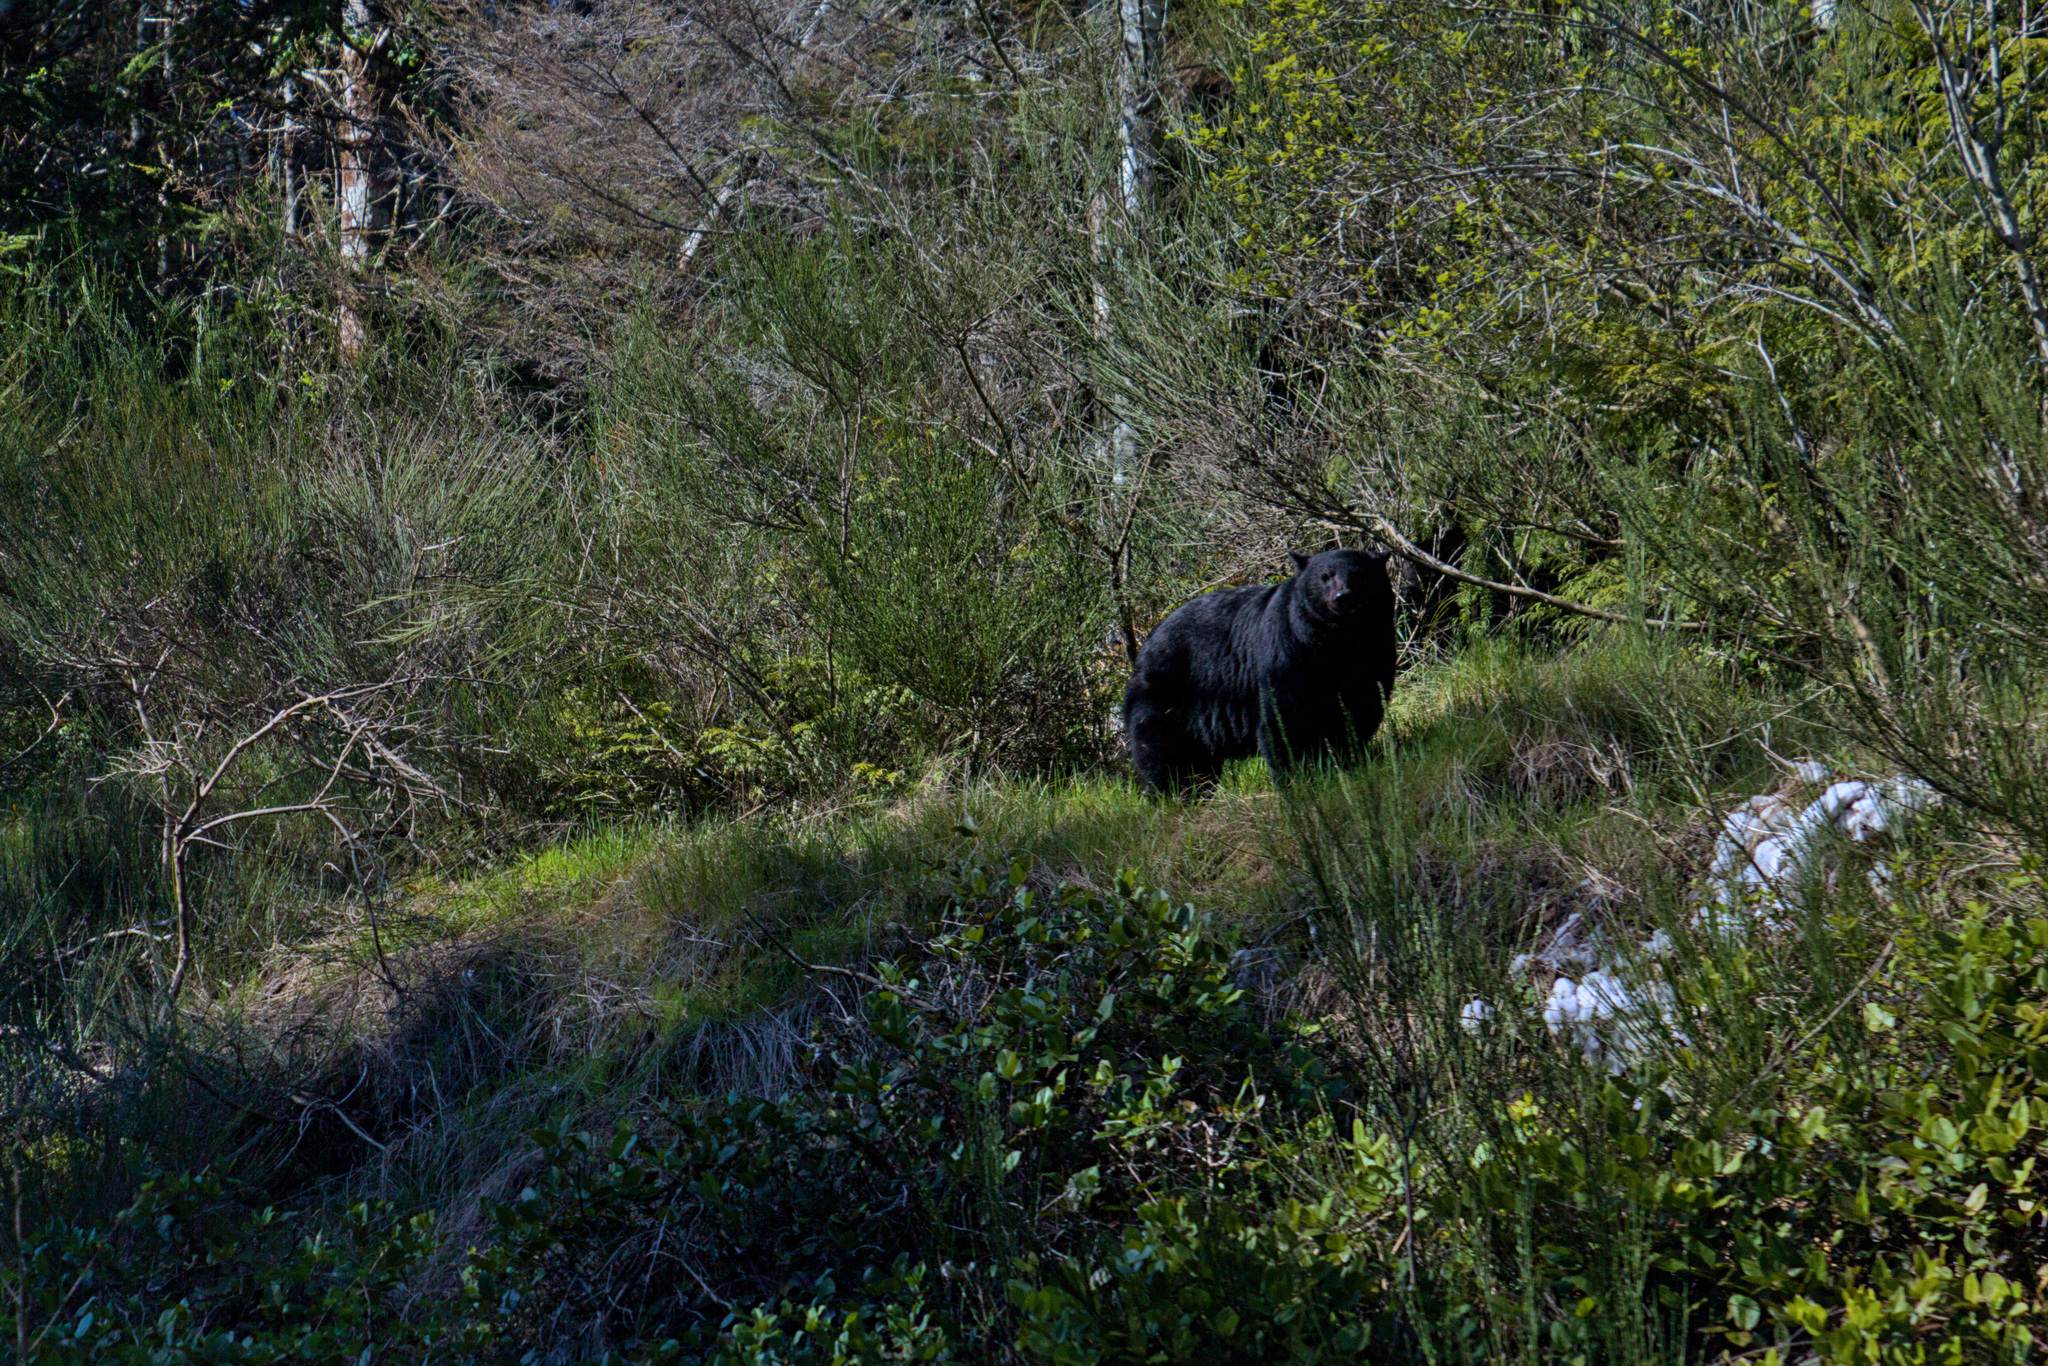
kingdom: Animalia
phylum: Chordata
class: Mammalia
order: Carnivora
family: Ursidae
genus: Ursus
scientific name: Ursus americanus
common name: American black bear
